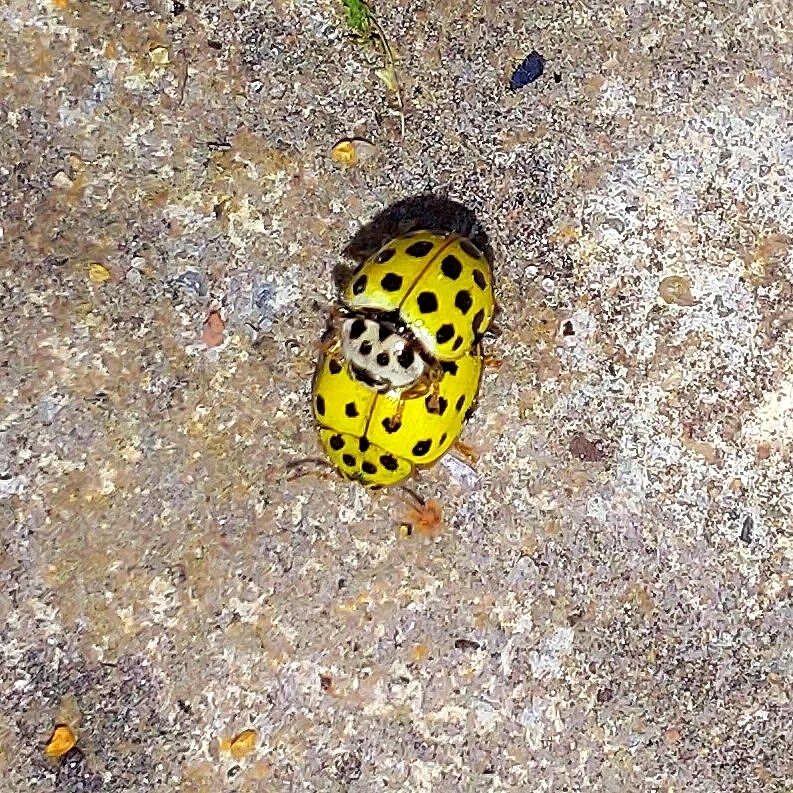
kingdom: Animalia
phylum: Arthropoda
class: Insecta
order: Coleoptera
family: Coccinellidae
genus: Psyllobora
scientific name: Psyllobora vigintiduopunctata
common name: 22-spot ladybird
